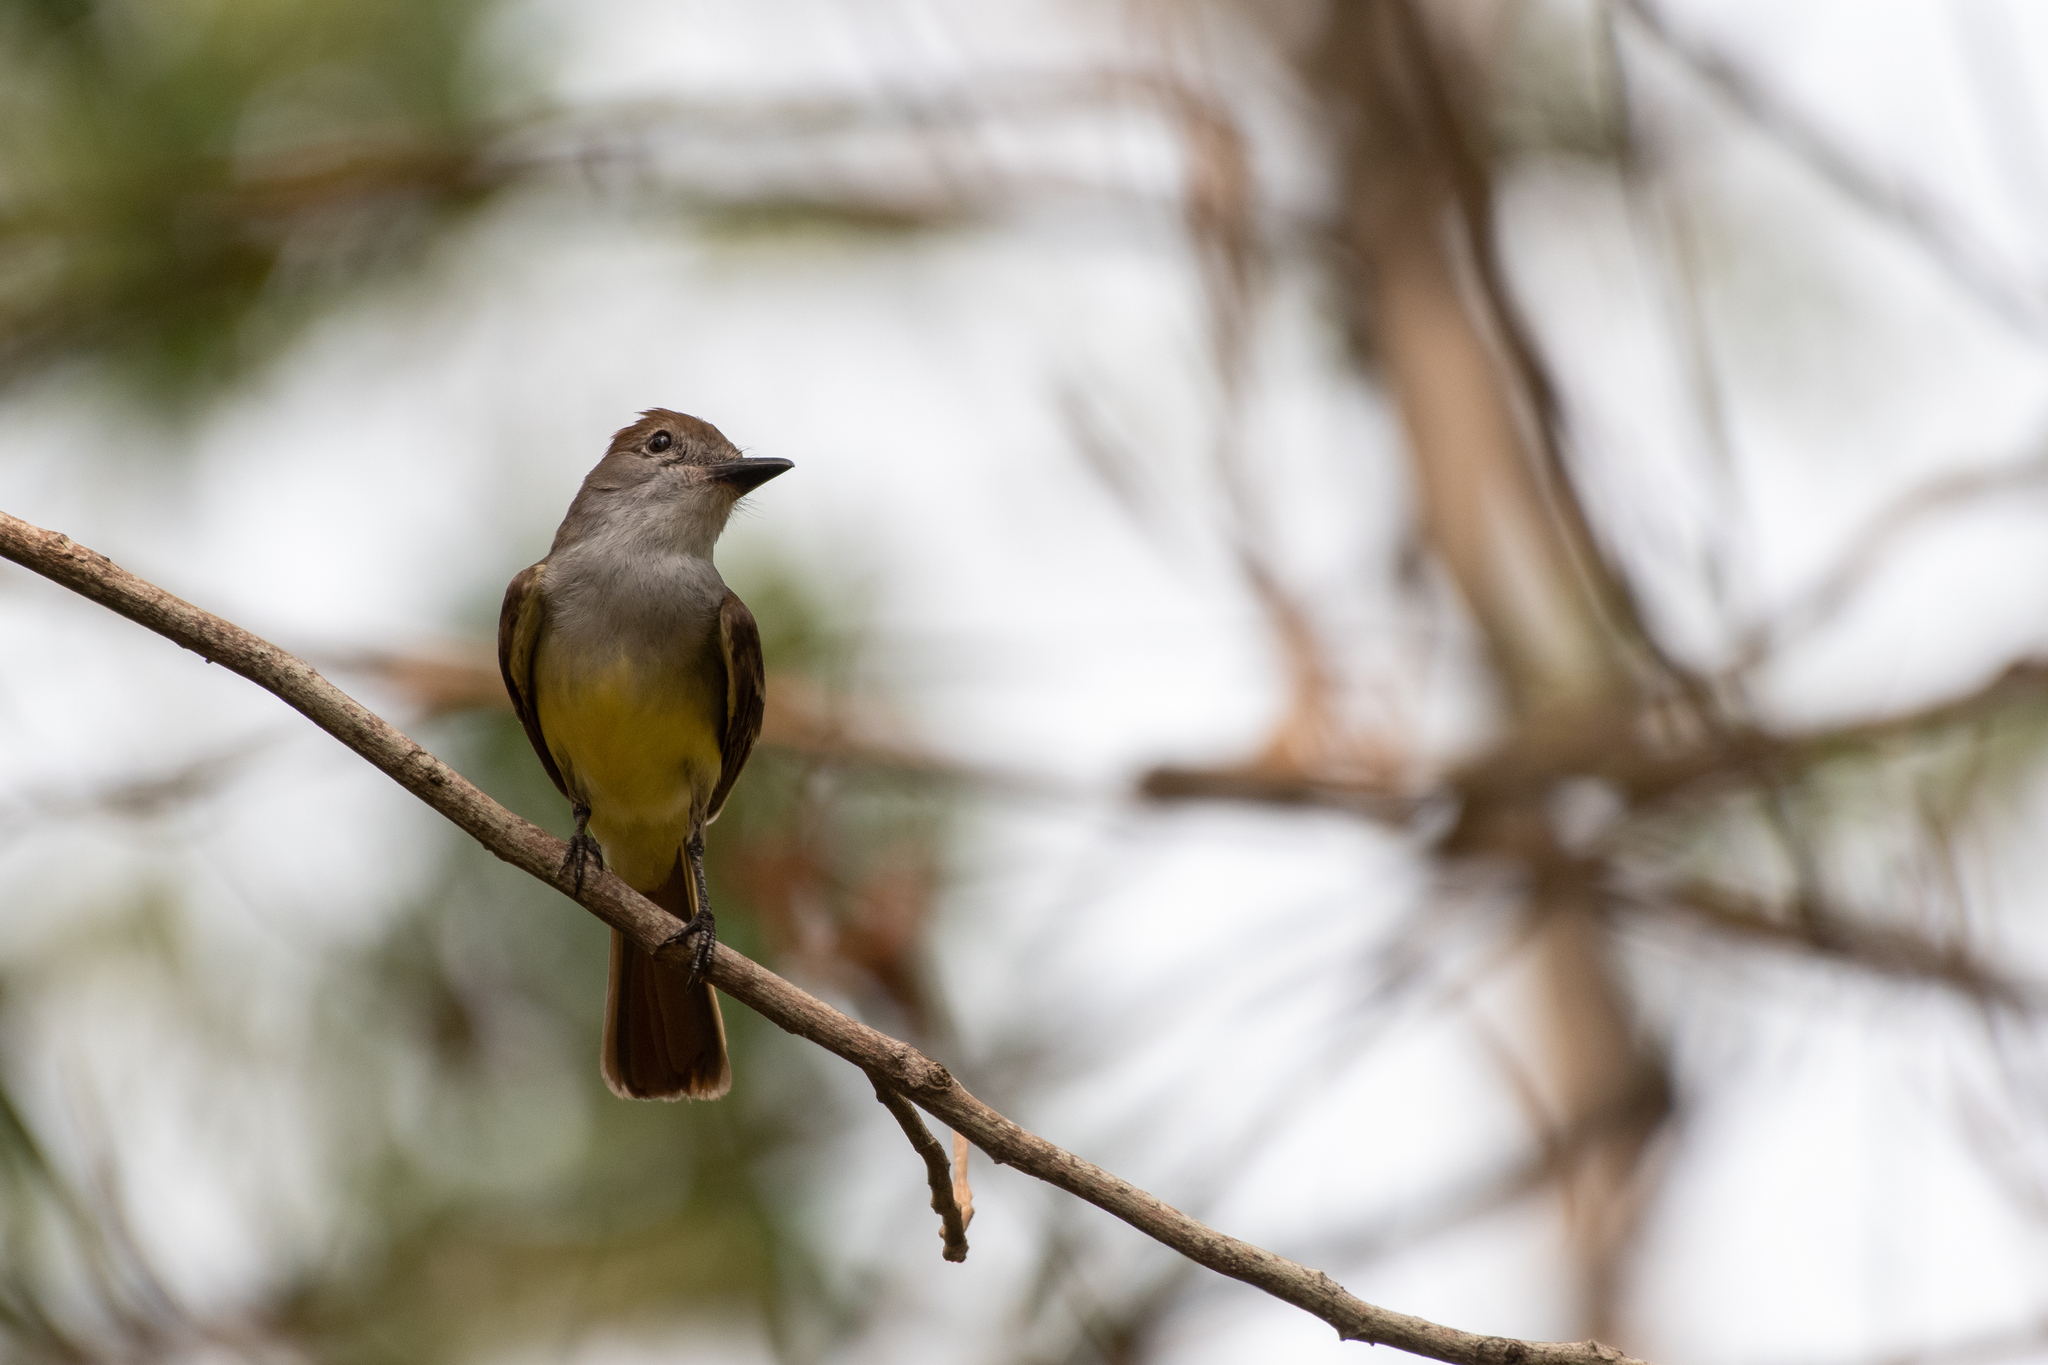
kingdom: Animalia
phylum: Chordata
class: Aves
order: Passeriformes
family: Tyrannidae
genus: Myiarchus
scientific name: Myiarchus tyrannulus
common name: Brown-crested flycatcher
